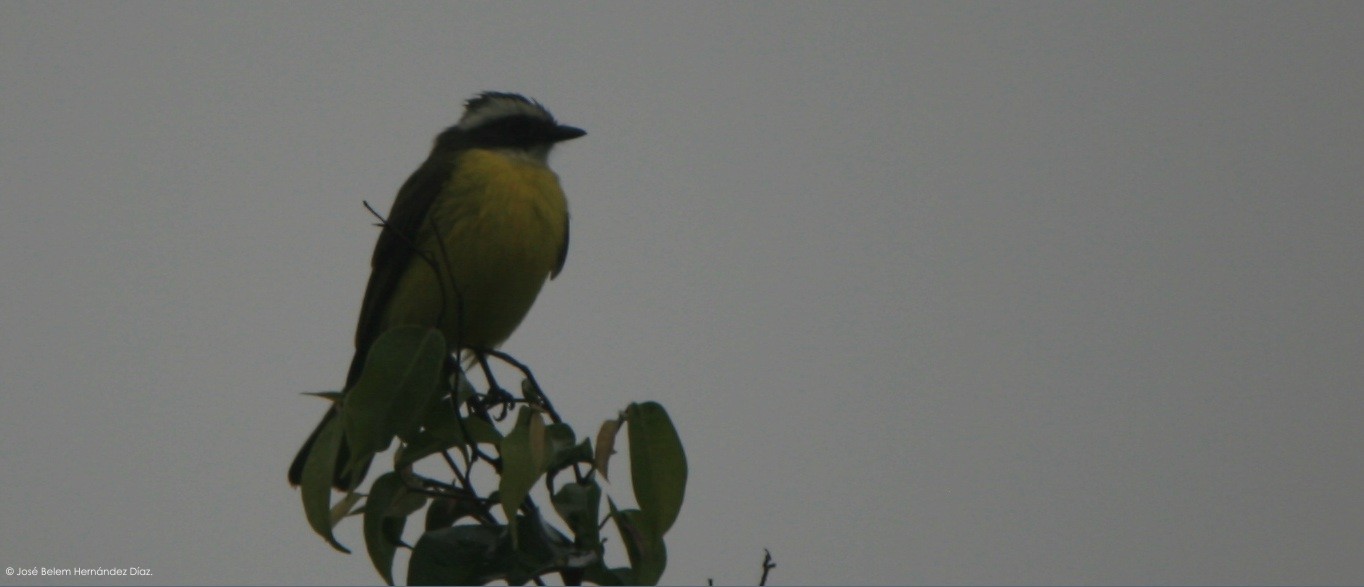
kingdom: Animalia
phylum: Chordata
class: Aves
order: Passeriformes
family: Tyrannidae
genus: Myiozetetes
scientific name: Myiozetetes similis
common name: Social flycatcher
